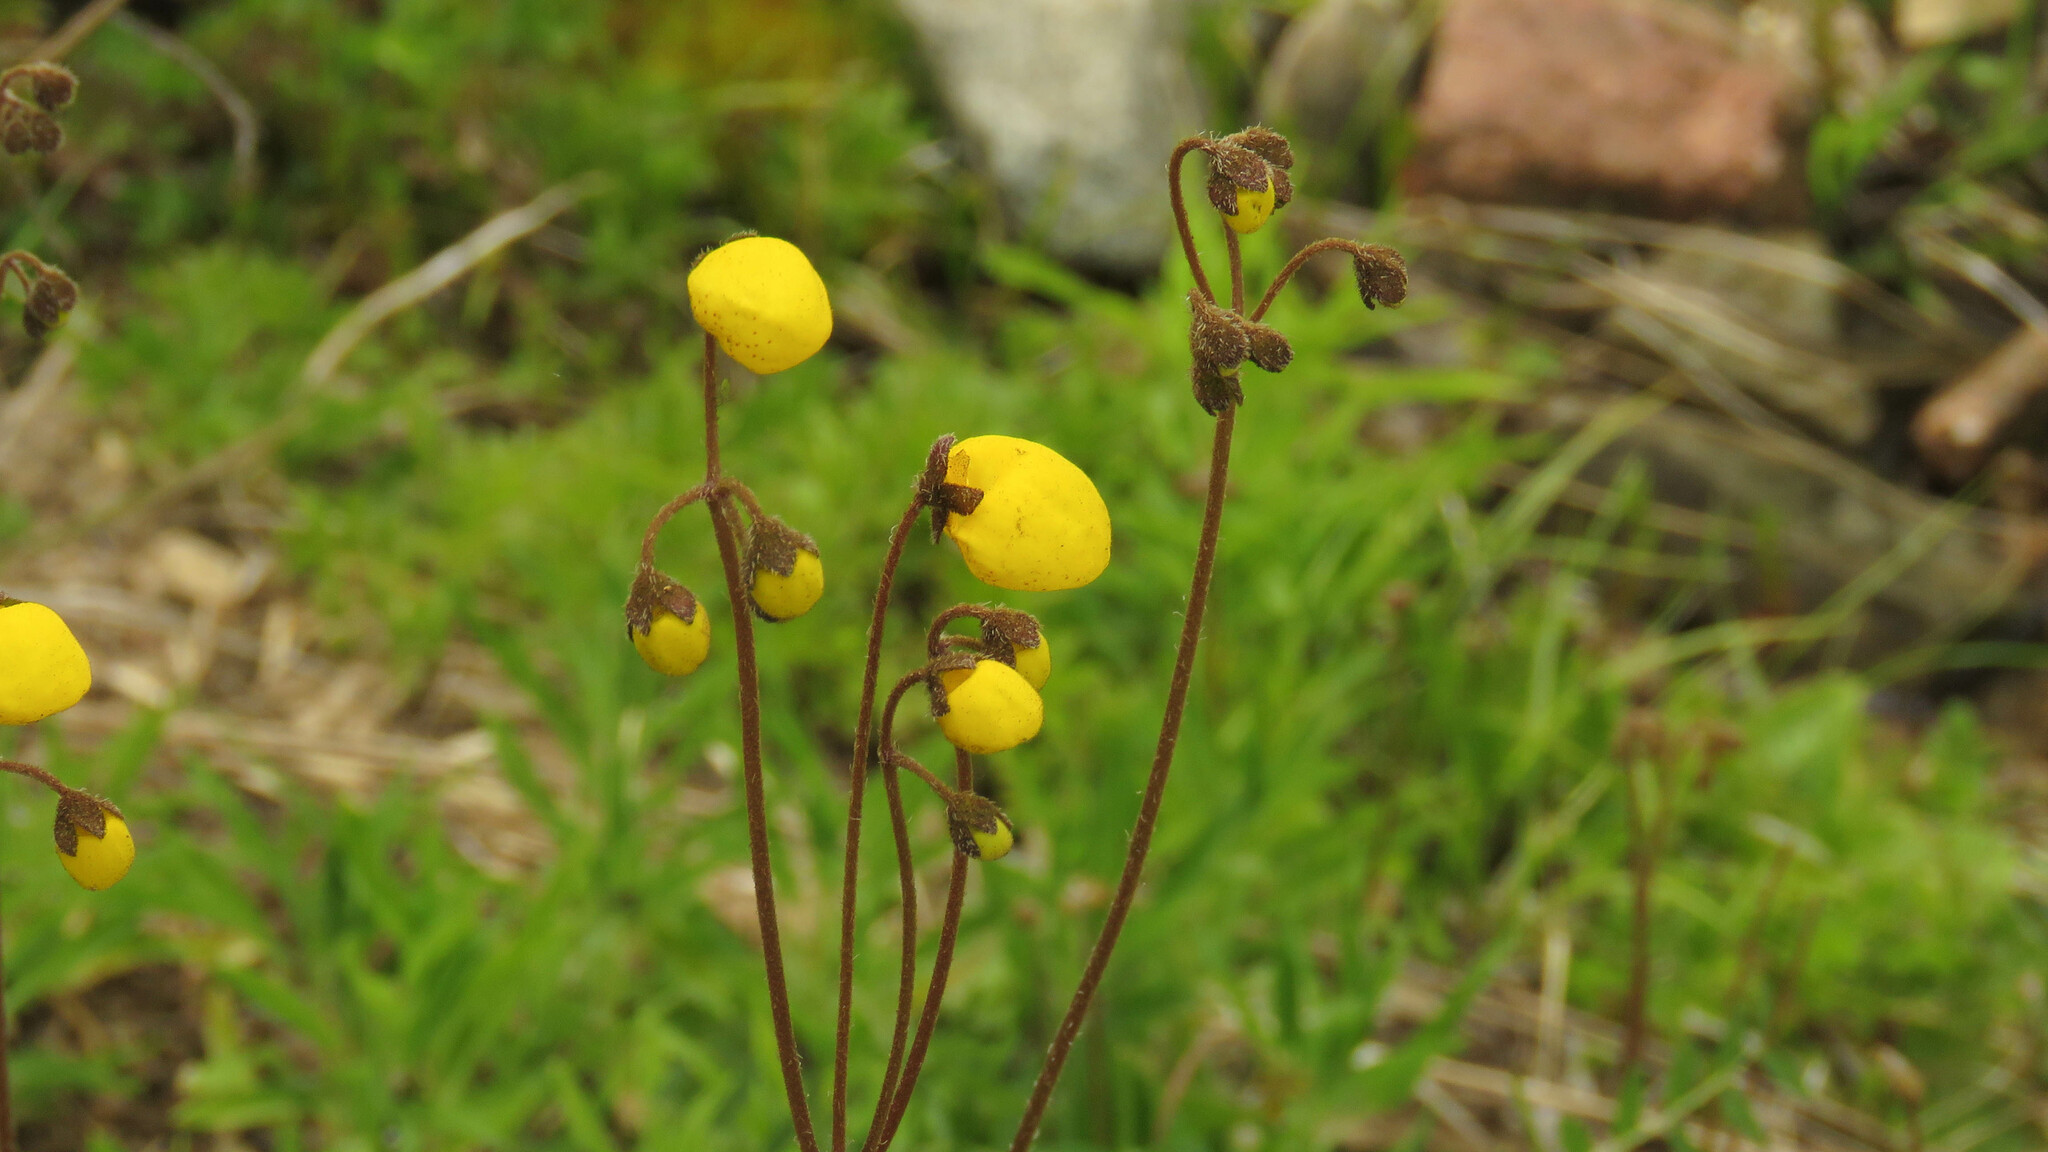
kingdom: Plantae
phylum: Tracheophyta
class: Magnoliopsida
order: Lamiales
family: Calceolariaceae
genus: Calceolaria
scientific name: Calceolaria filicaulis
